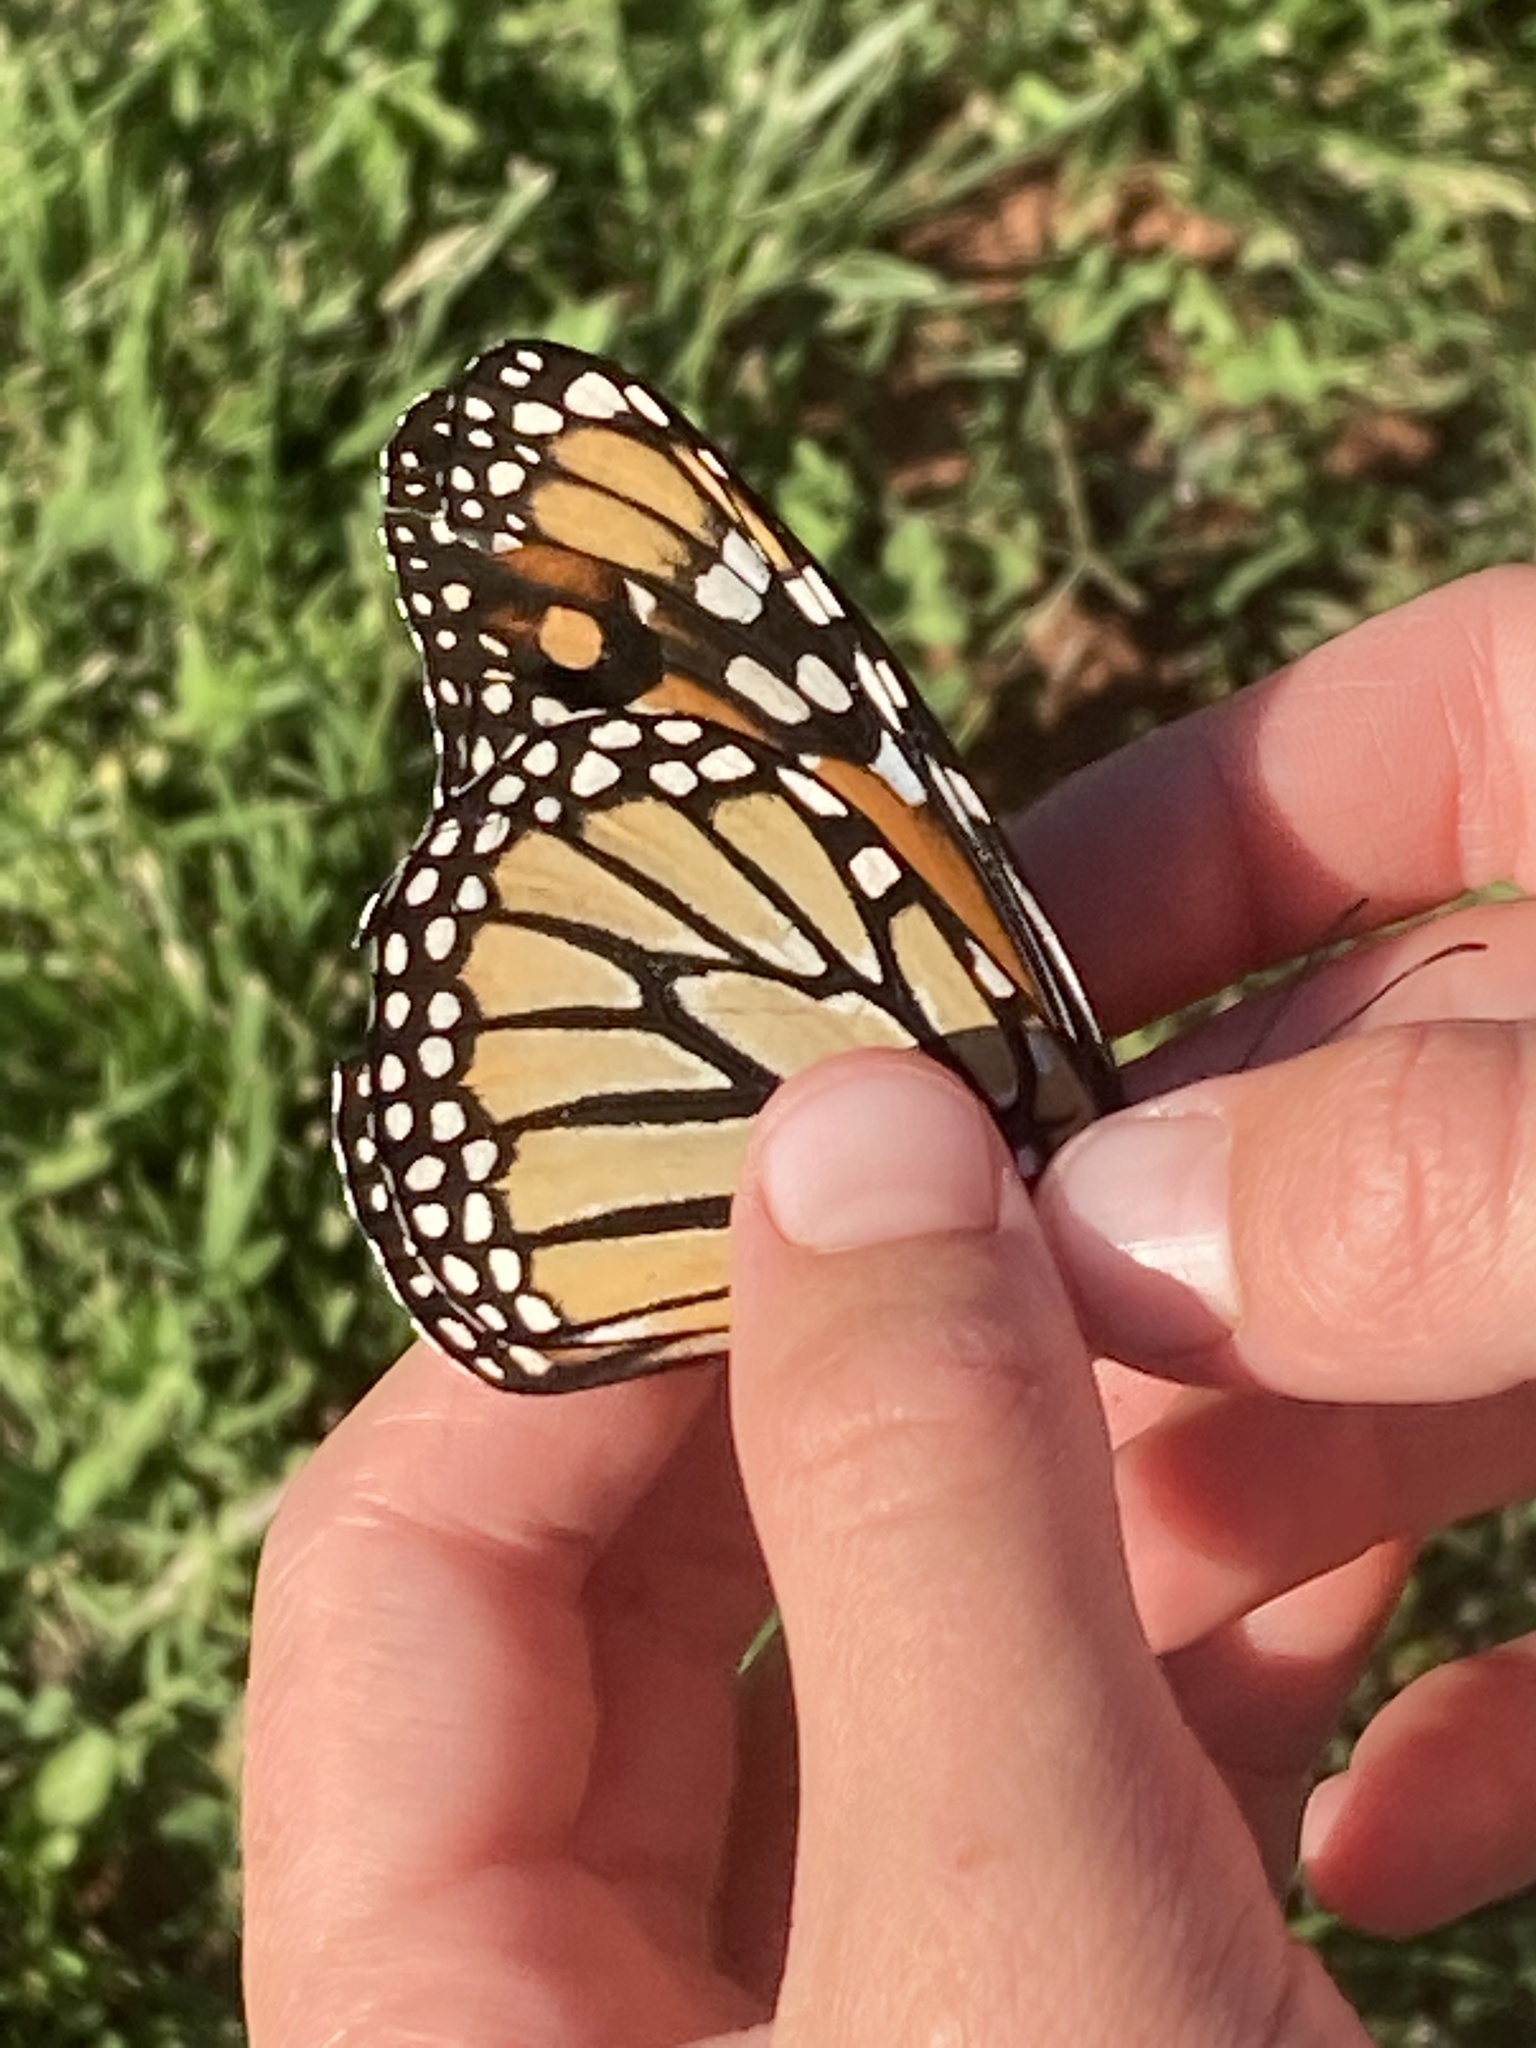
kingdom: Animalia
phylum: Arthropoda
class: Insecta
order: Lepidoptera
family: Nymphalidae
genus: Danaus
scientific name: Danaus plexippus
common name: Monarch
